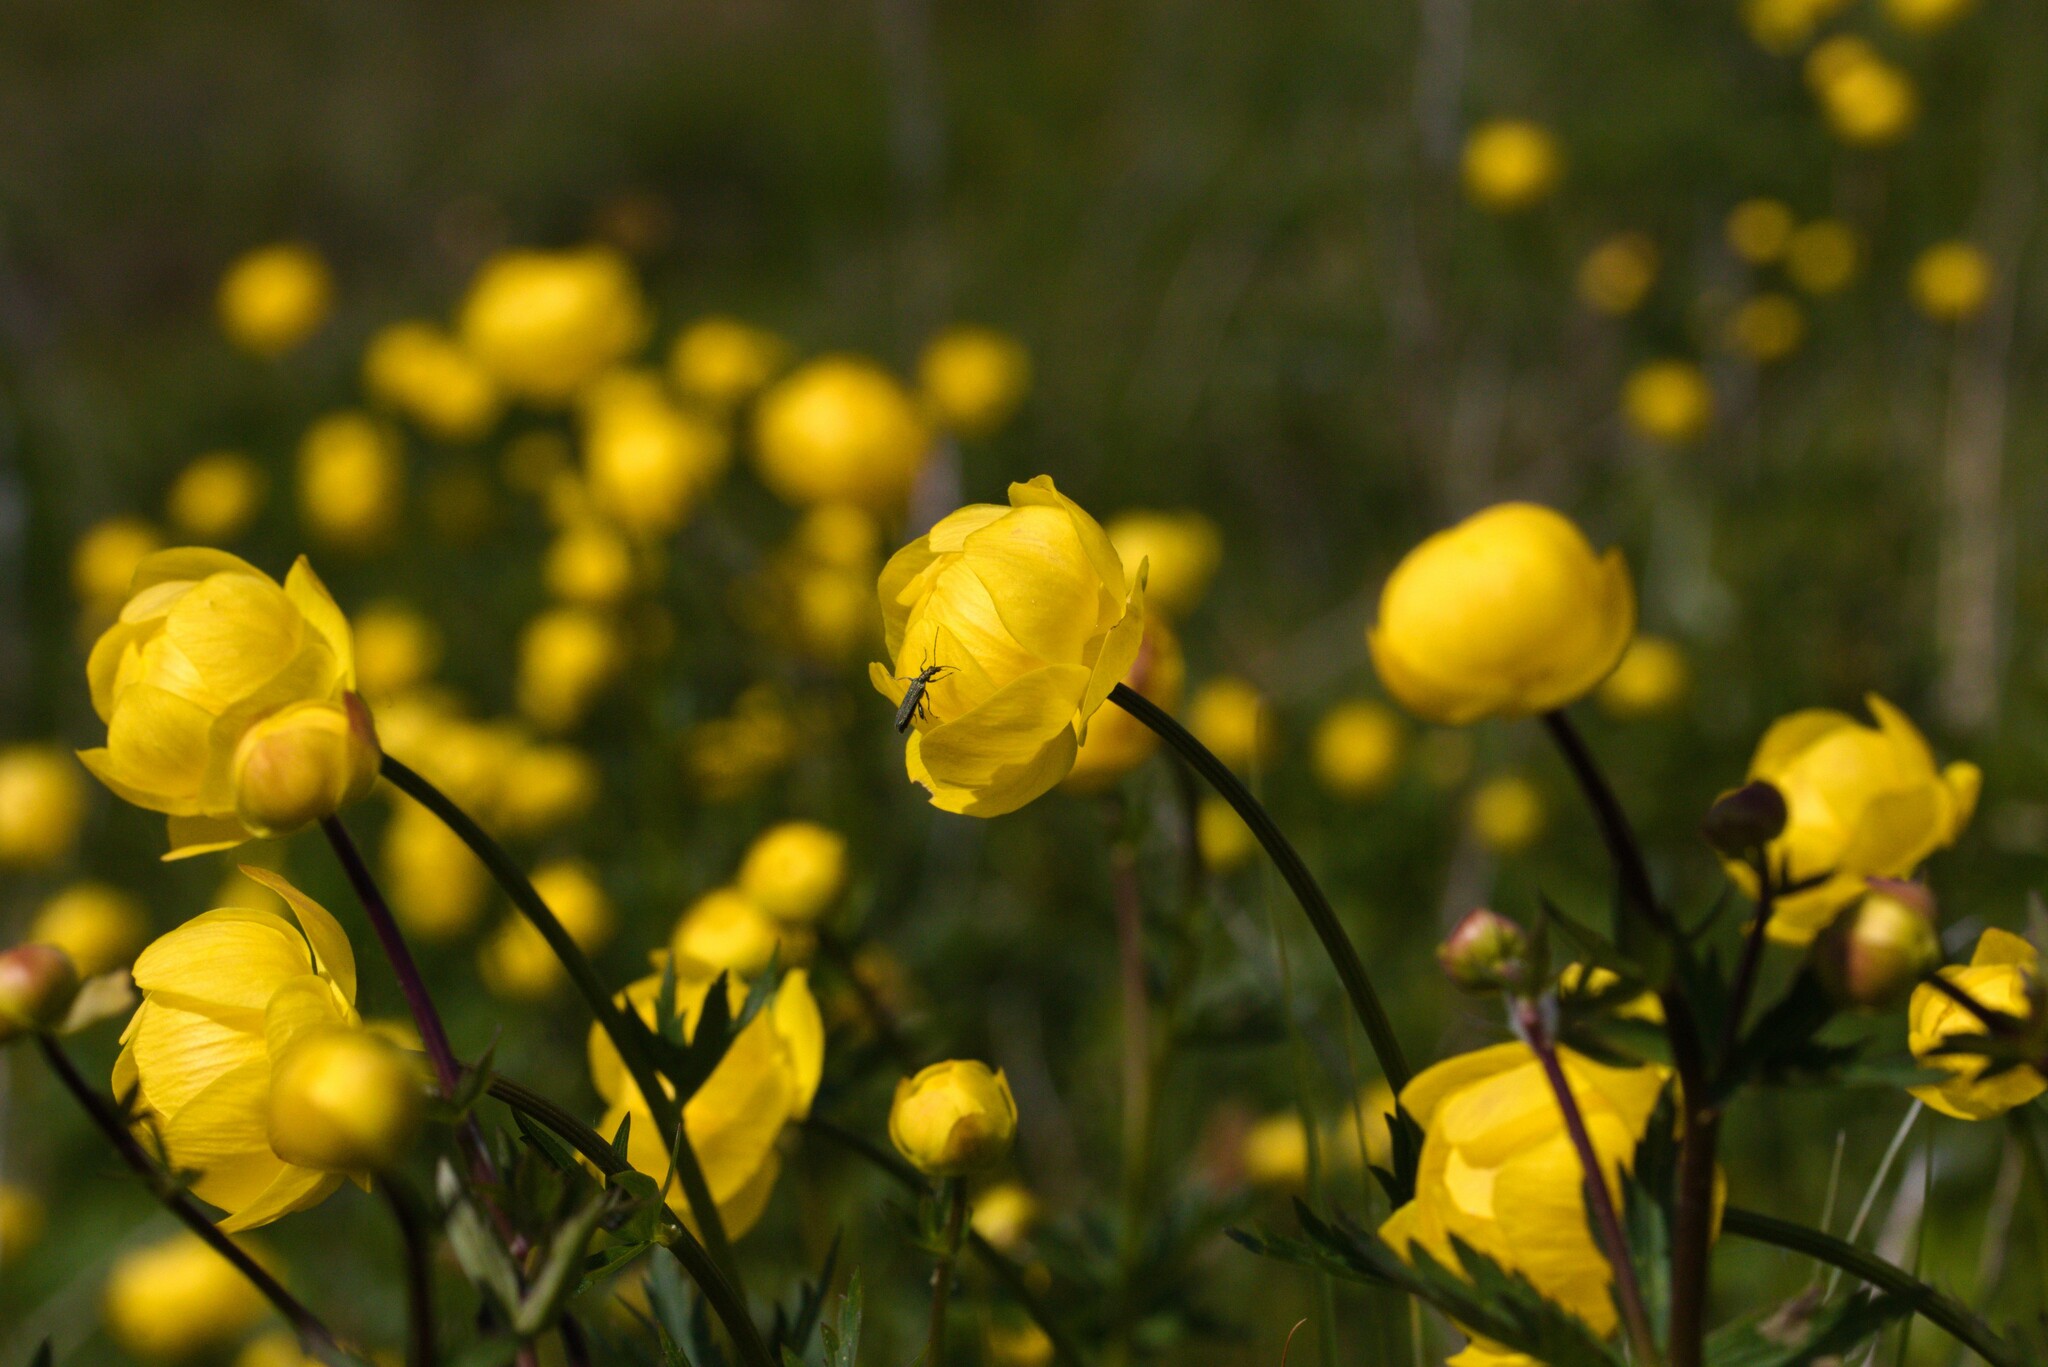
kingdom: Plantae
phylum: Tracheophyta
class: Magnoliopsida
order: Ranunculales
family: Ranunculaceae
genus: Trollius
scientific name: Trollius europaeus
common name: European globeflower
